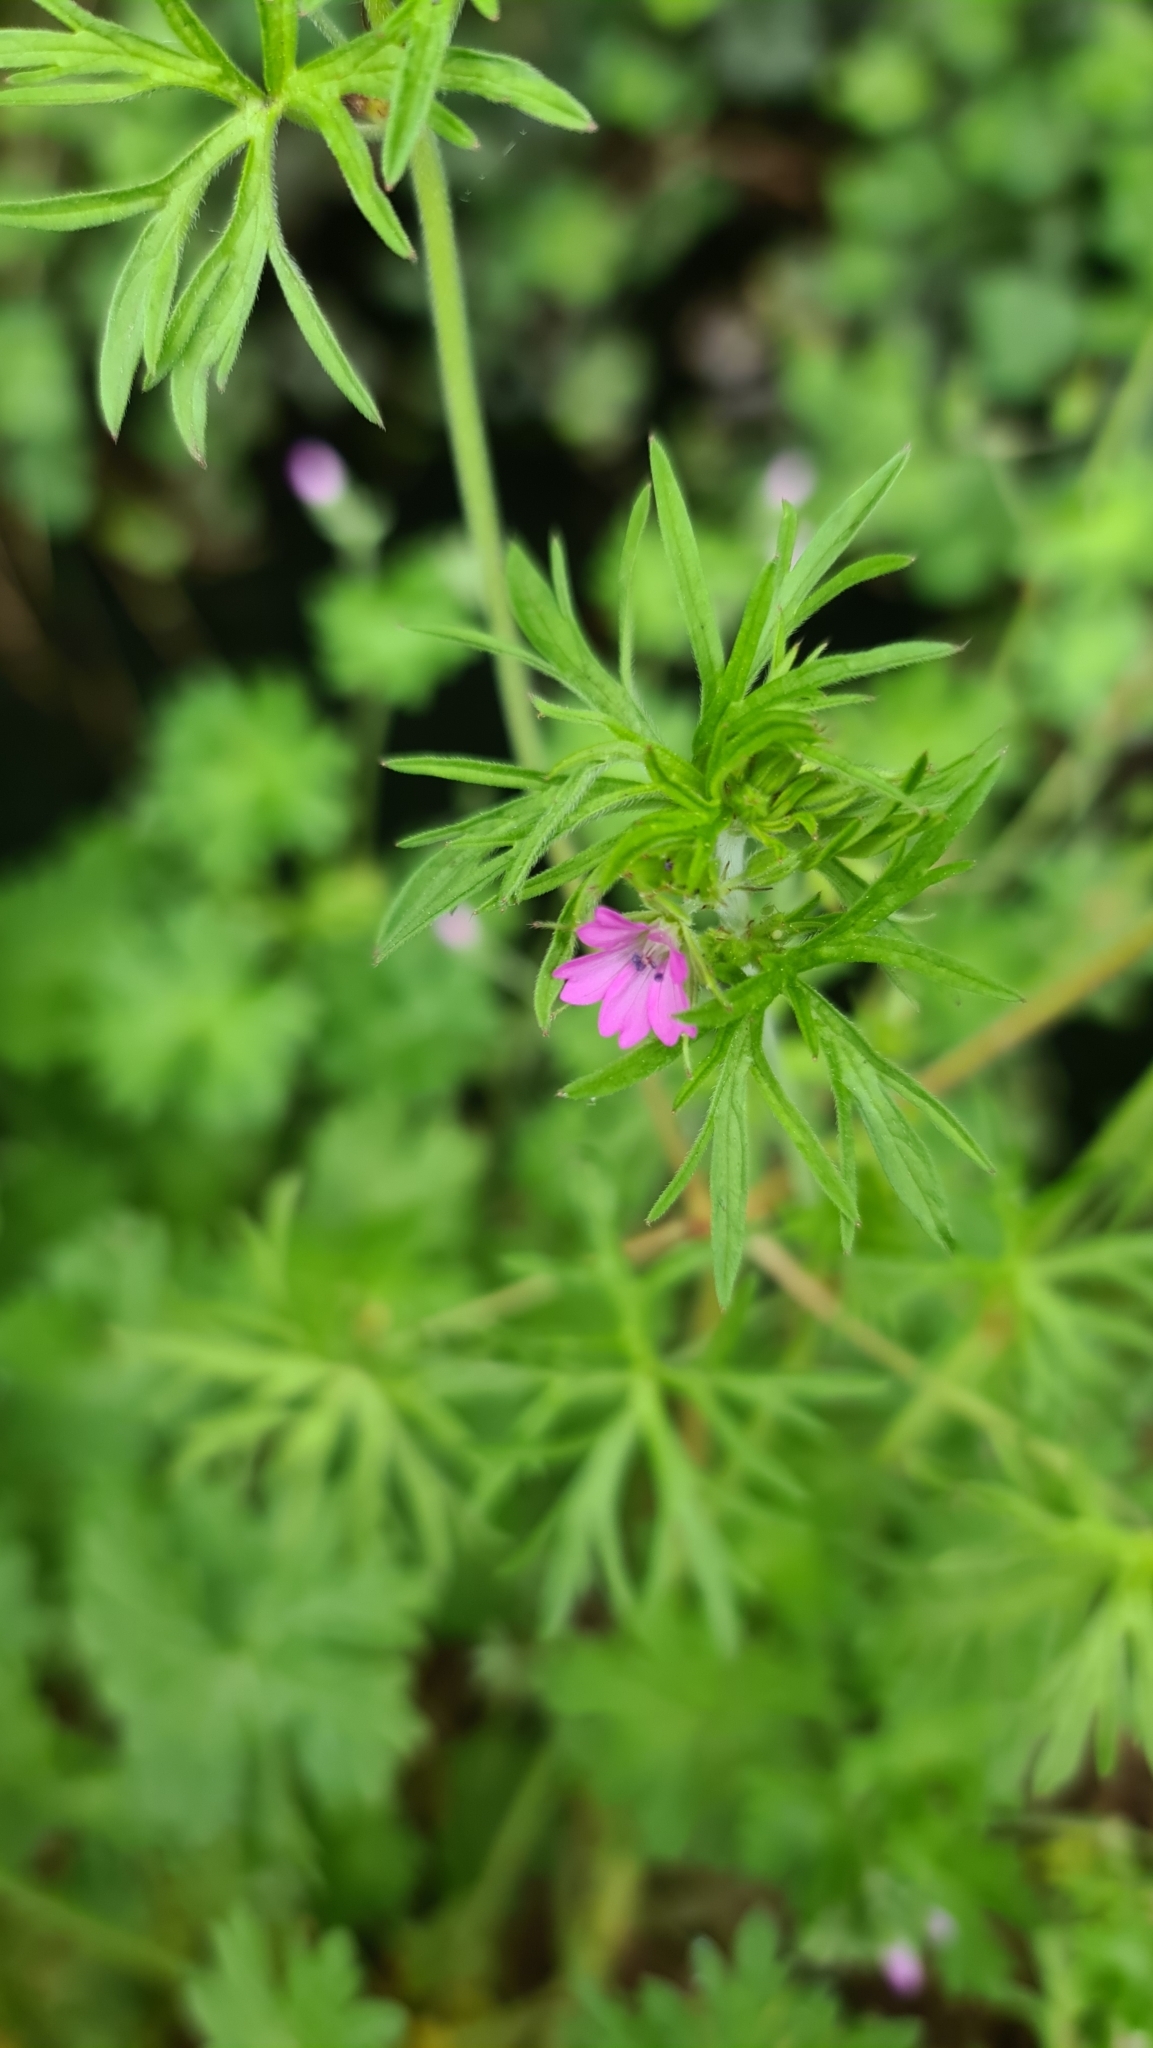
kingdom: Plantae
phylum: Tracheophyta
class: Magnoliopsida
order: Geraniales
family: Geraniaceae
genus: Geranium
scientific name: Geranium dissectum
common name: Cut-leaved crane's-bill
